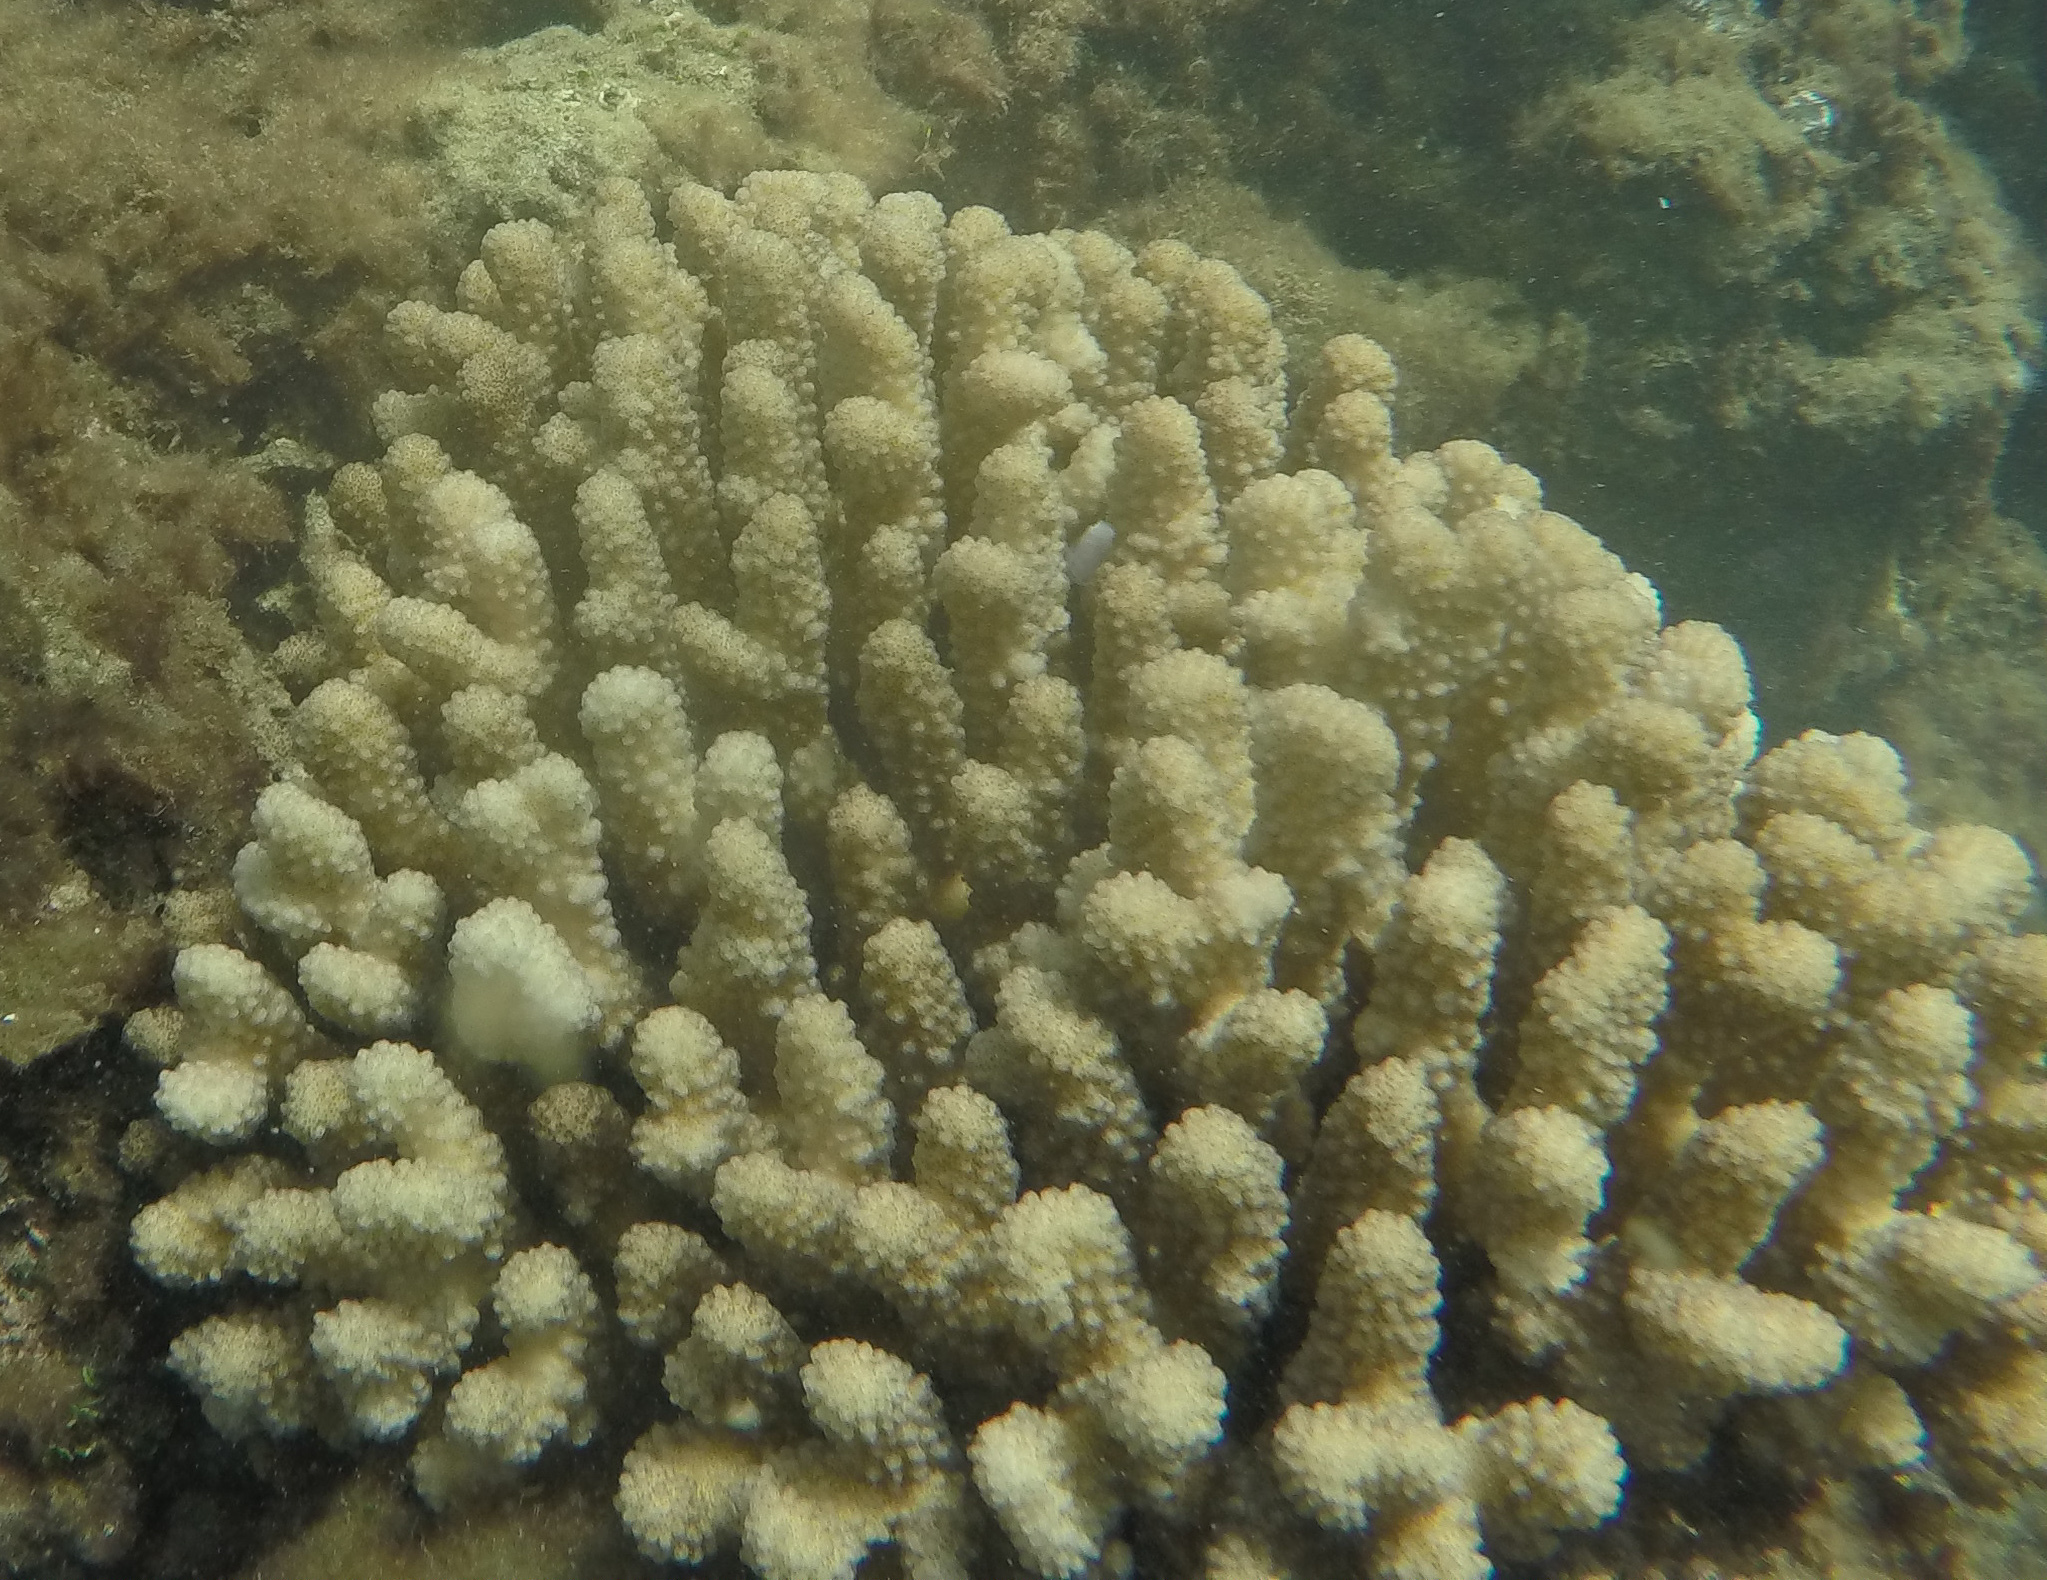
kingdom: Animalia
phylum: Cnidaria
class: Anthozoa
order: Scleractinia
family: Pocilloporidae
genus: Pocillopora
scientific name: Pocillopora verrucosa
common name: Cauliflower coral
